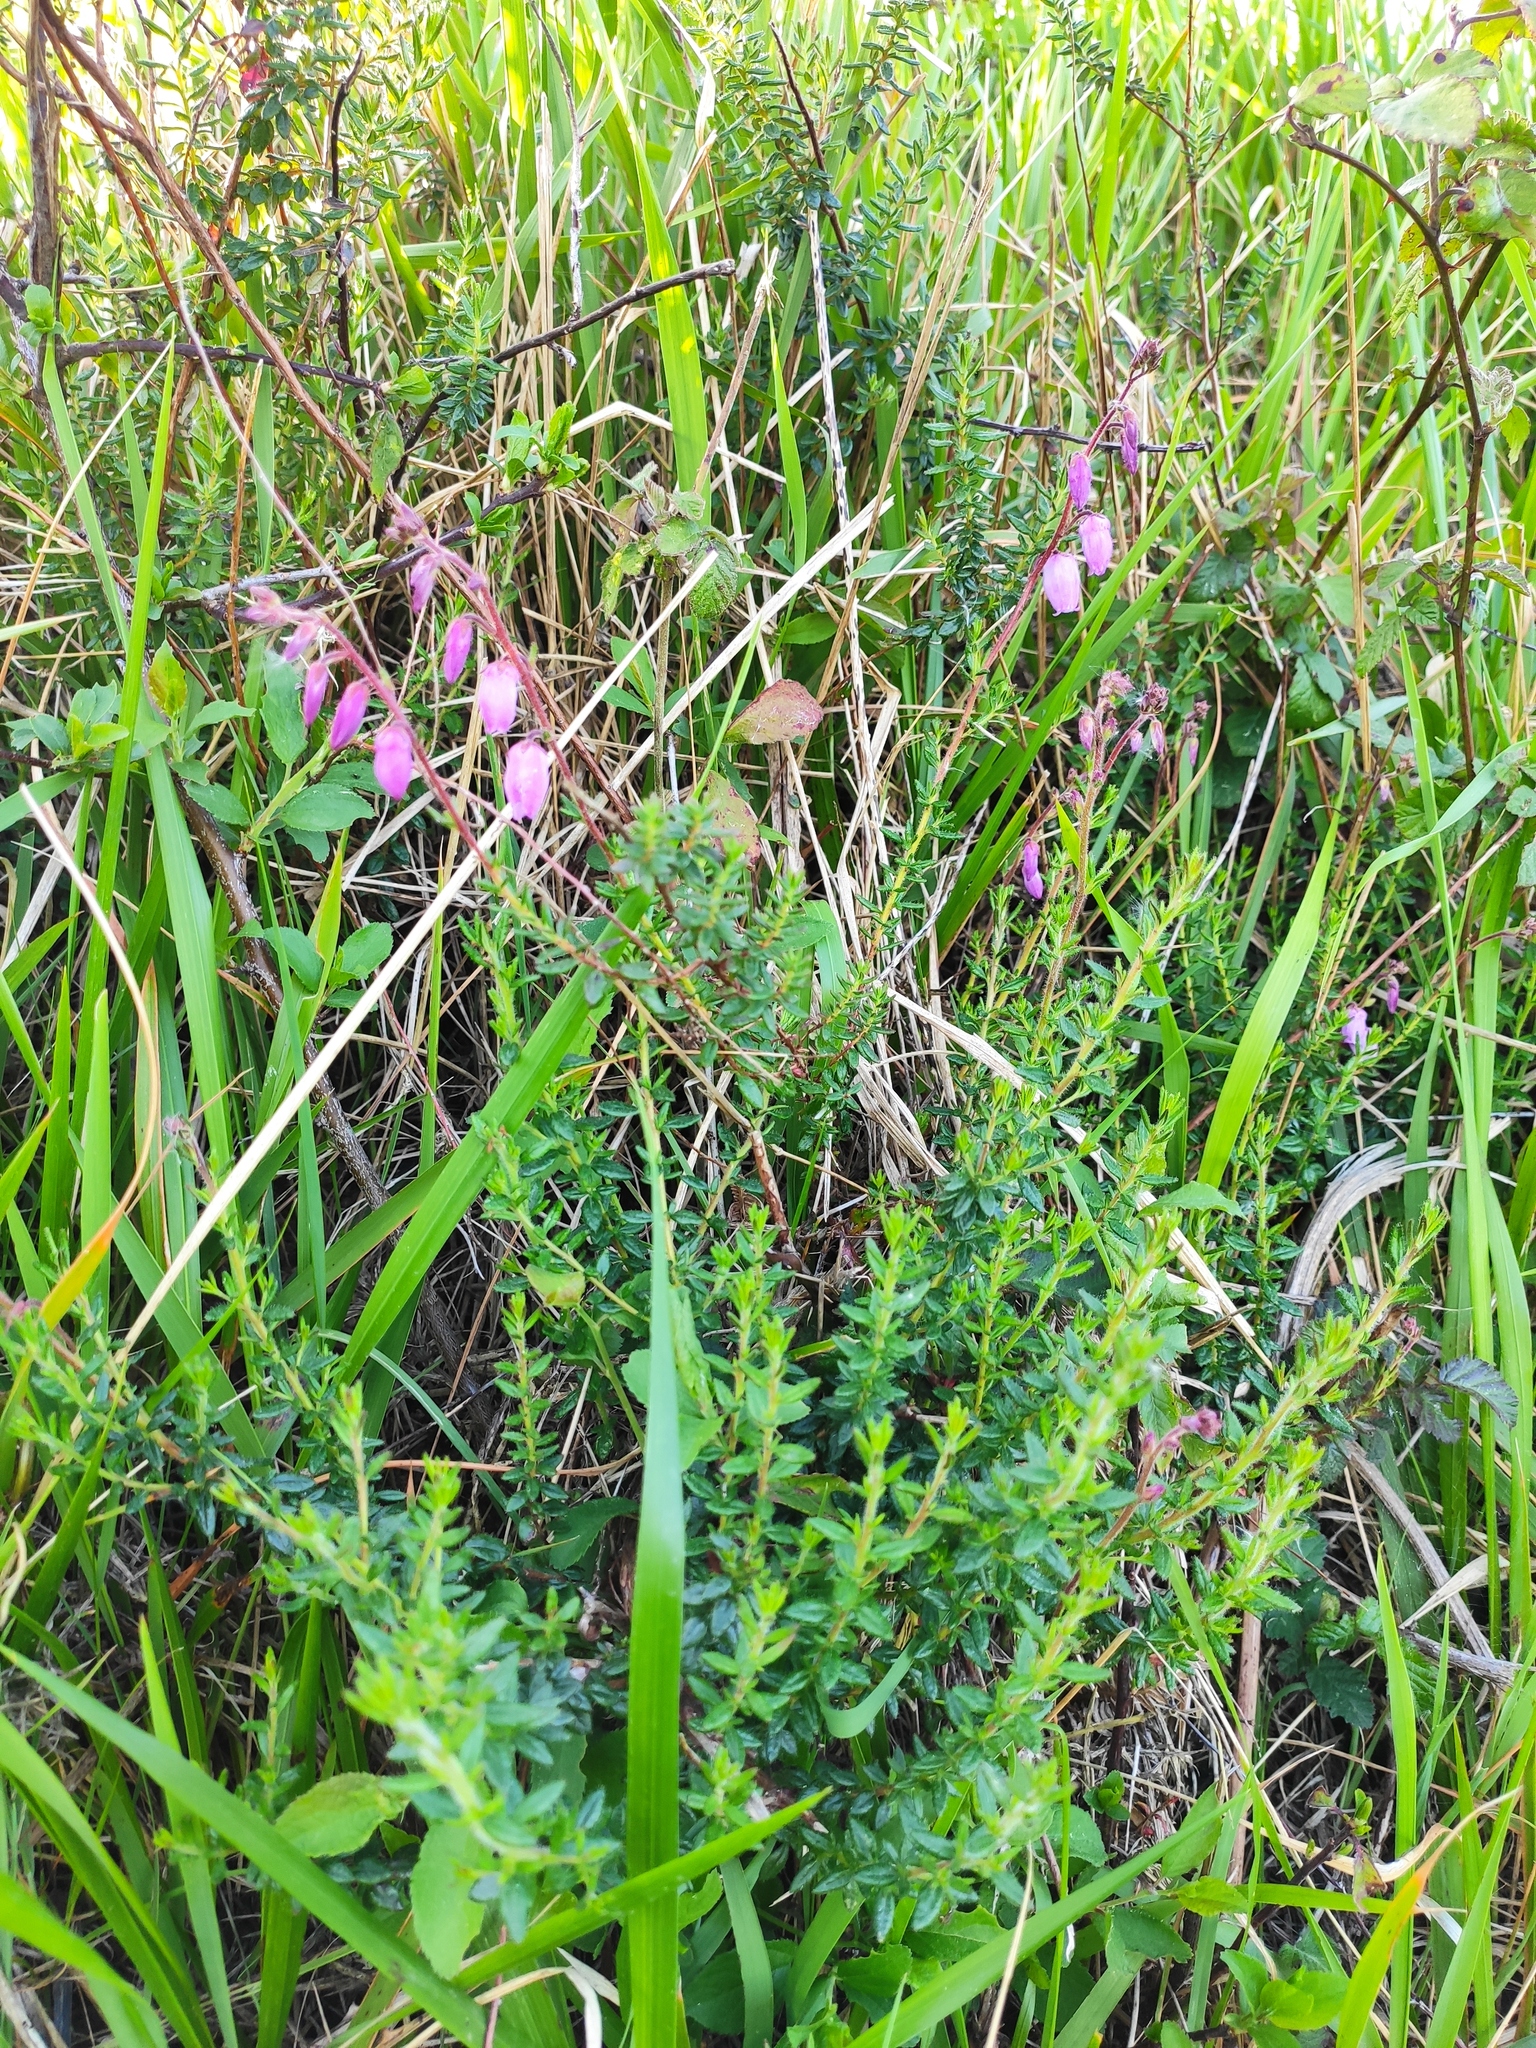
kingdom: Plantae
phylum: Tracheophyta
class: Magnoliopsida
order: Ericales
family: Ericaceae
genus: Daboecia
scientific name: Daboecia cantabrica
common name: St. dabeoc's-heath
